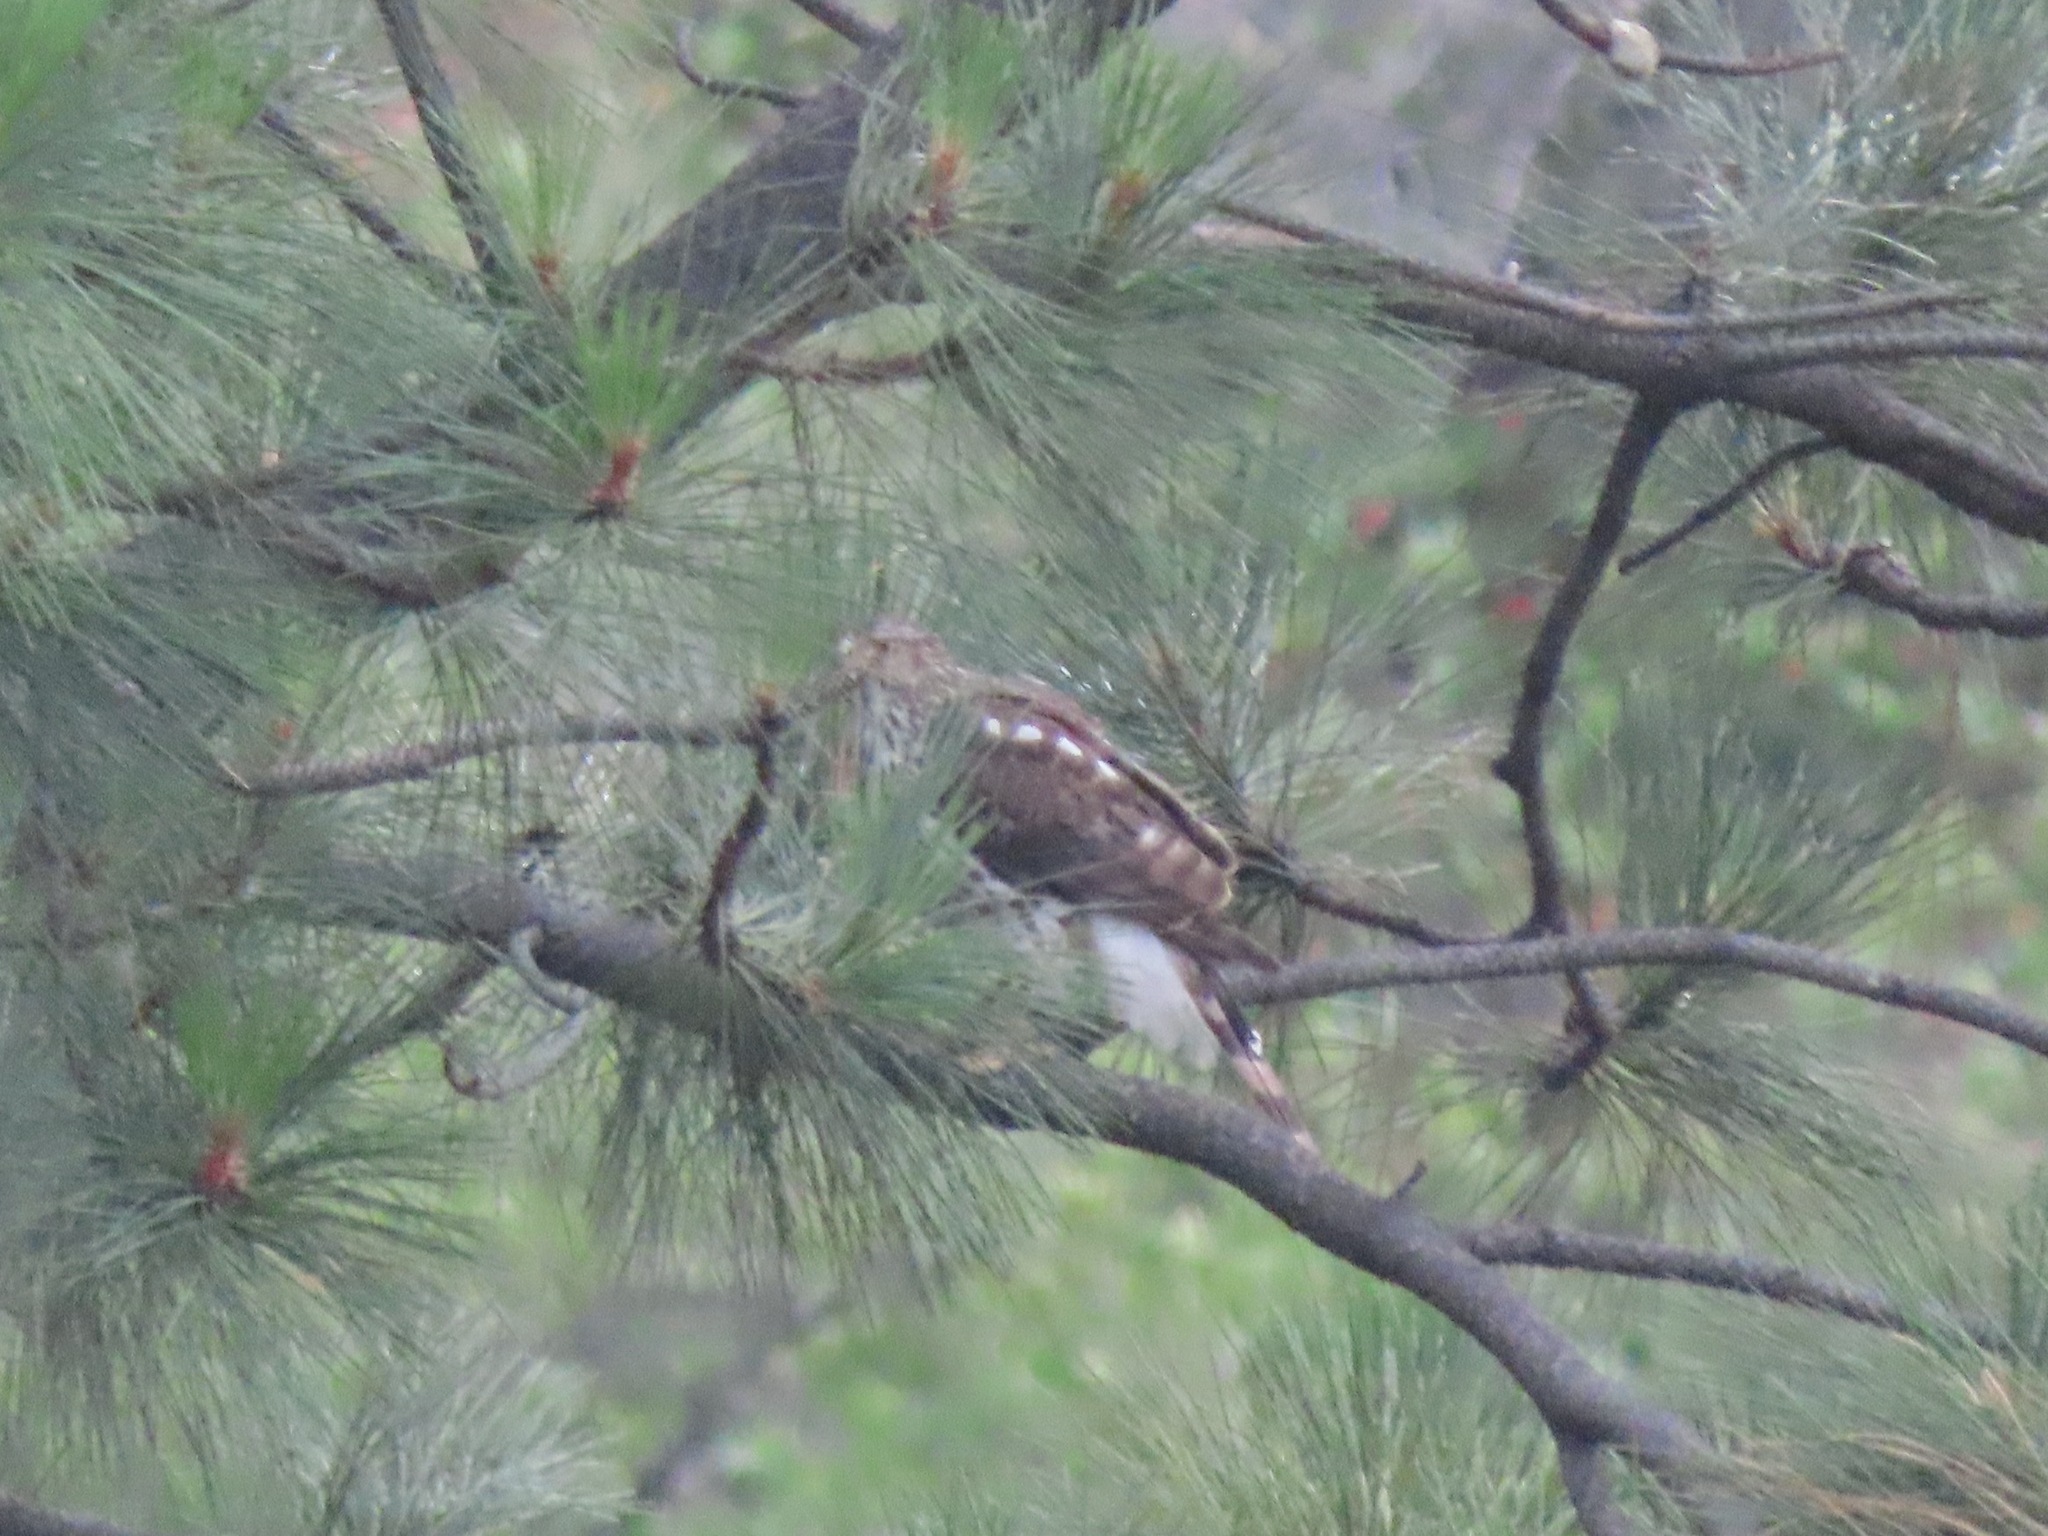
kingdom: Animalia
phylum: Chordata
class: Aves
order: Accipitriformes
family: Accipitridae
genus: Accipiter
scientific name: Accipiter cooperii
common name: Cooper's hawk
